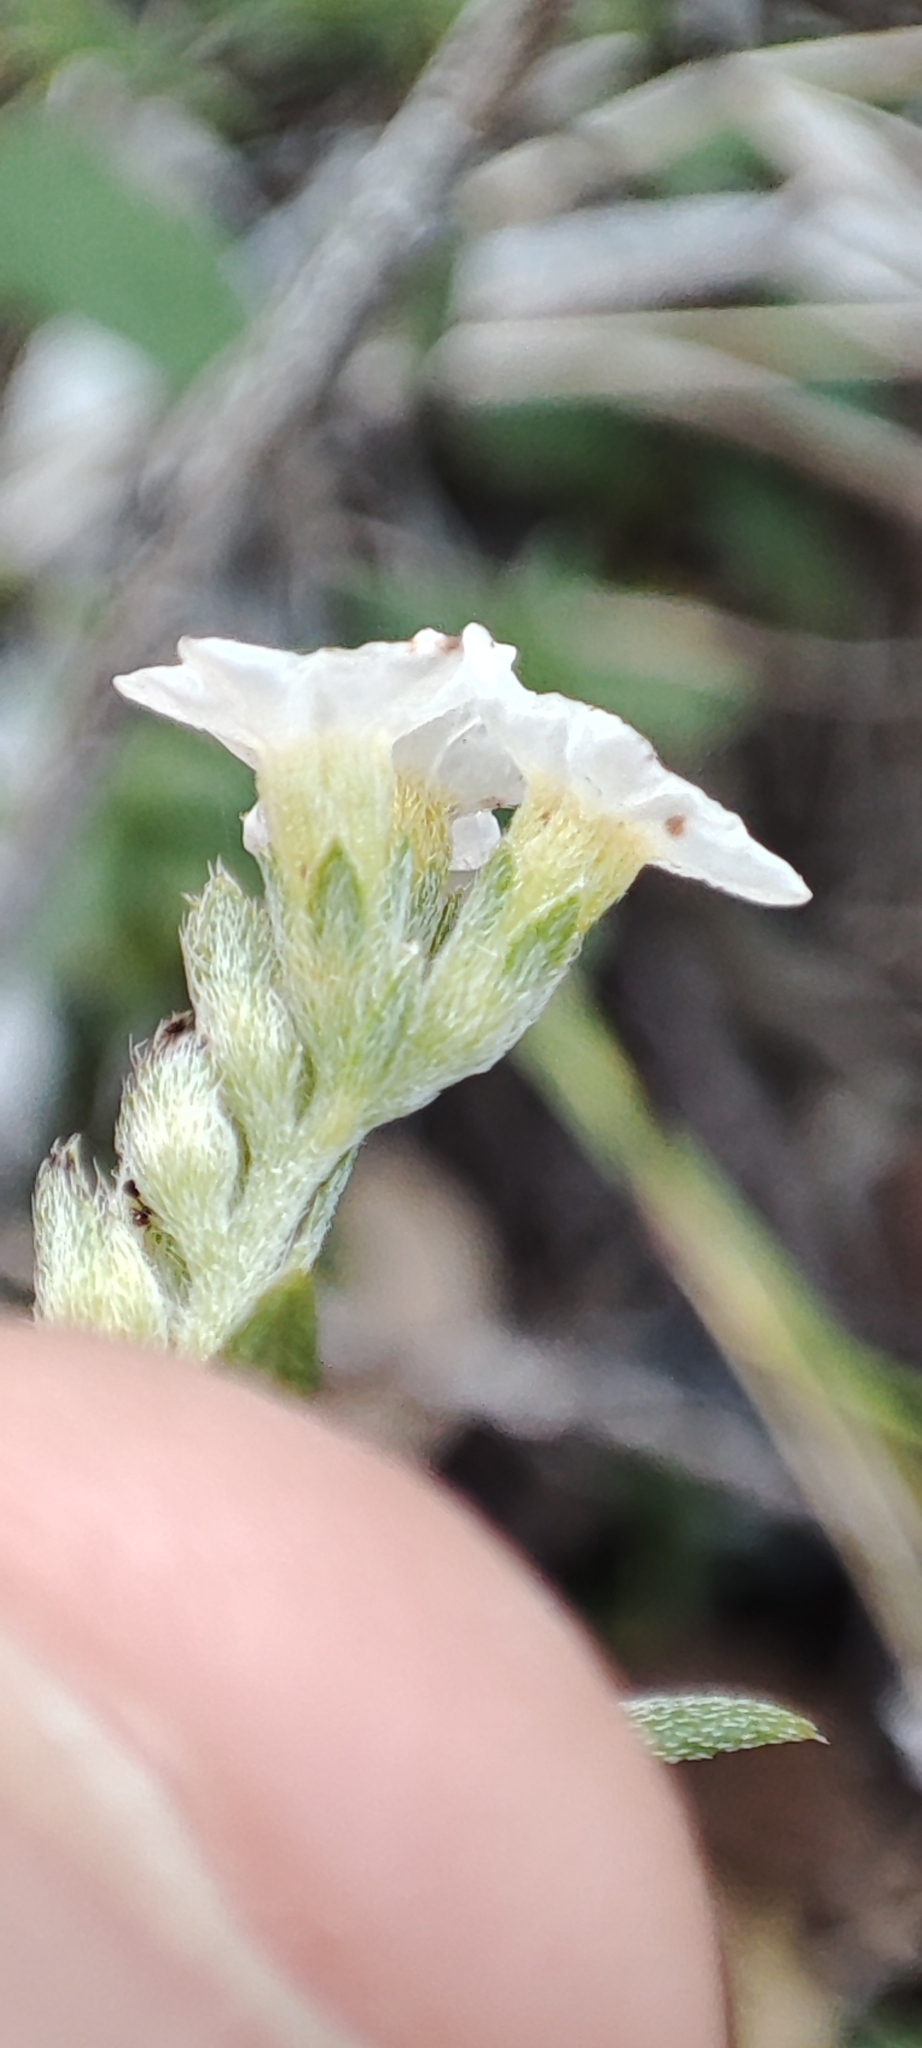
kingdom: Plantae
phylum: Tracheophyta
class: Magnoliopsida
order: Boraginales
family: Heliotropiaceae
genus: Euploca
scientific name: Euploca humilis
